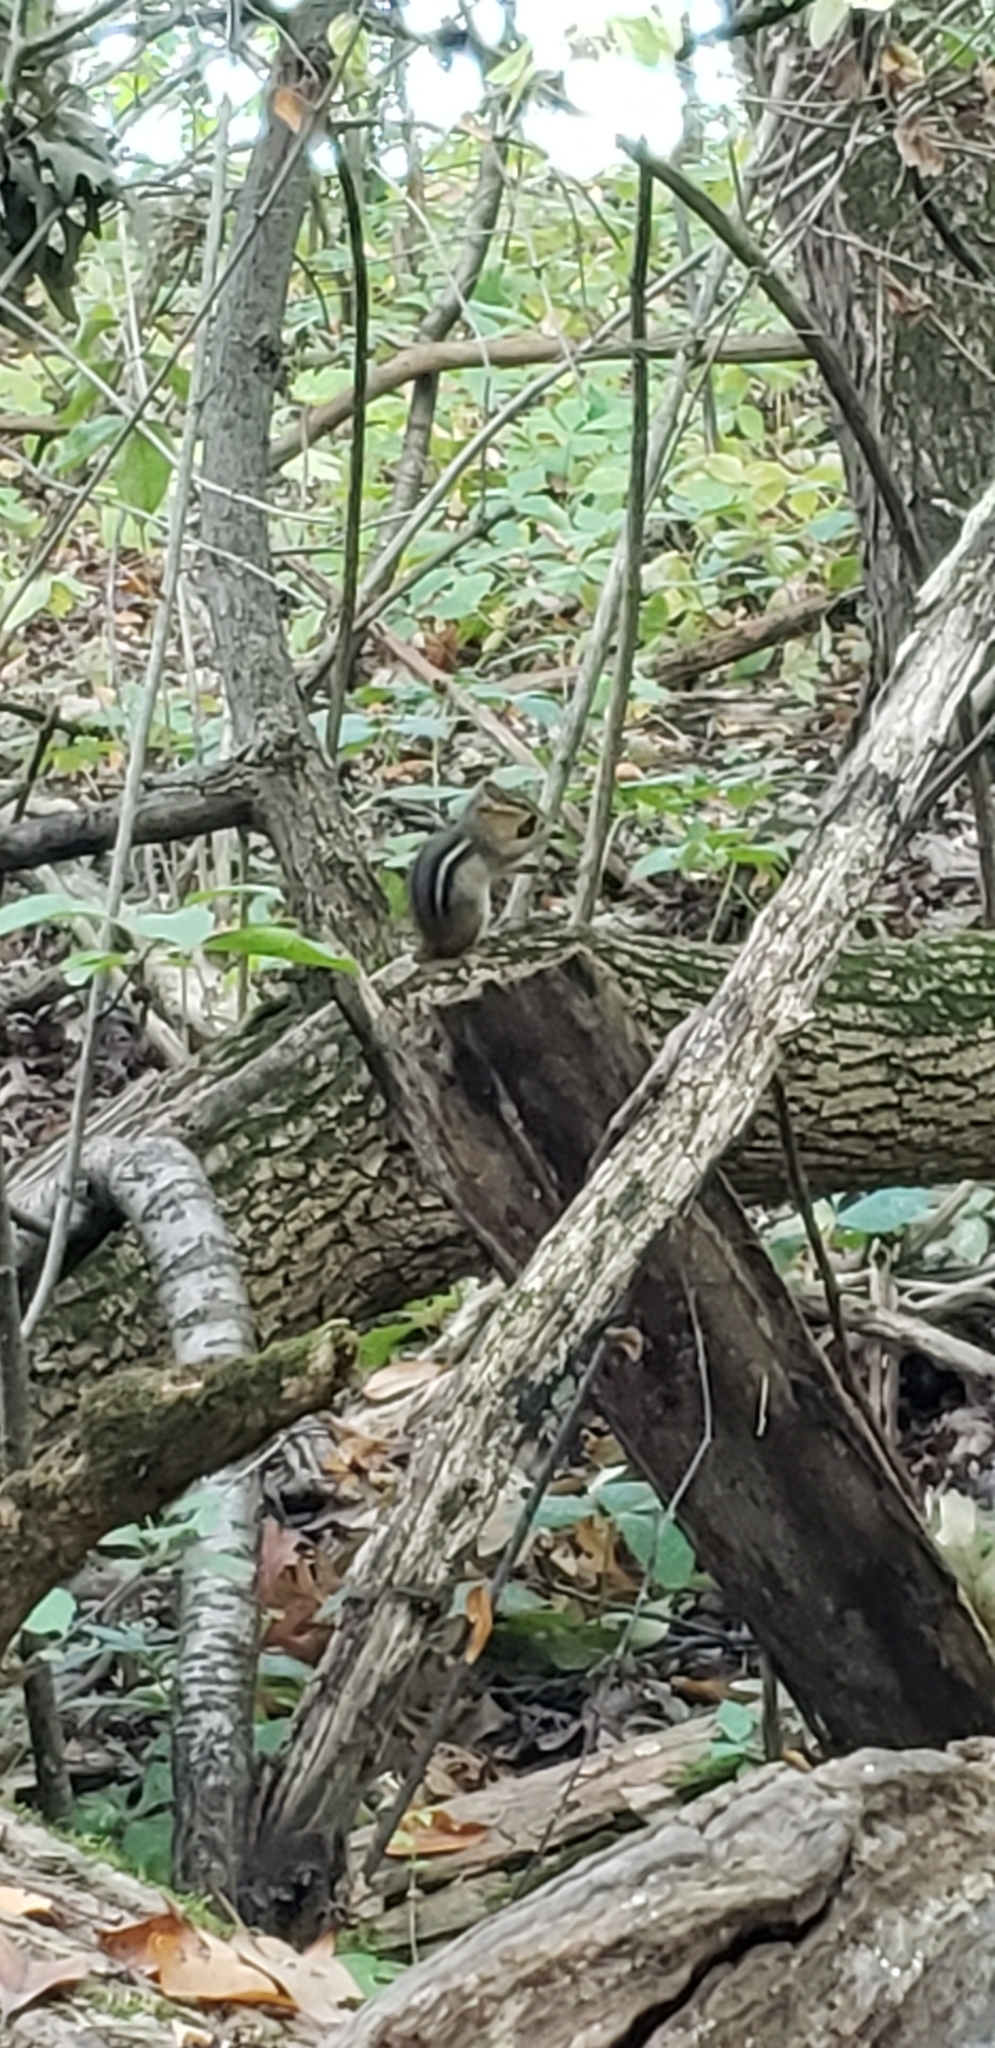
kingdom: Animalia
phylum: Chordata
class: Mammalia
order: Rodentia
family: Sciuridae
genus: Tamias
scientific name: Tamias striatus
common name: Eastern chipmunk
